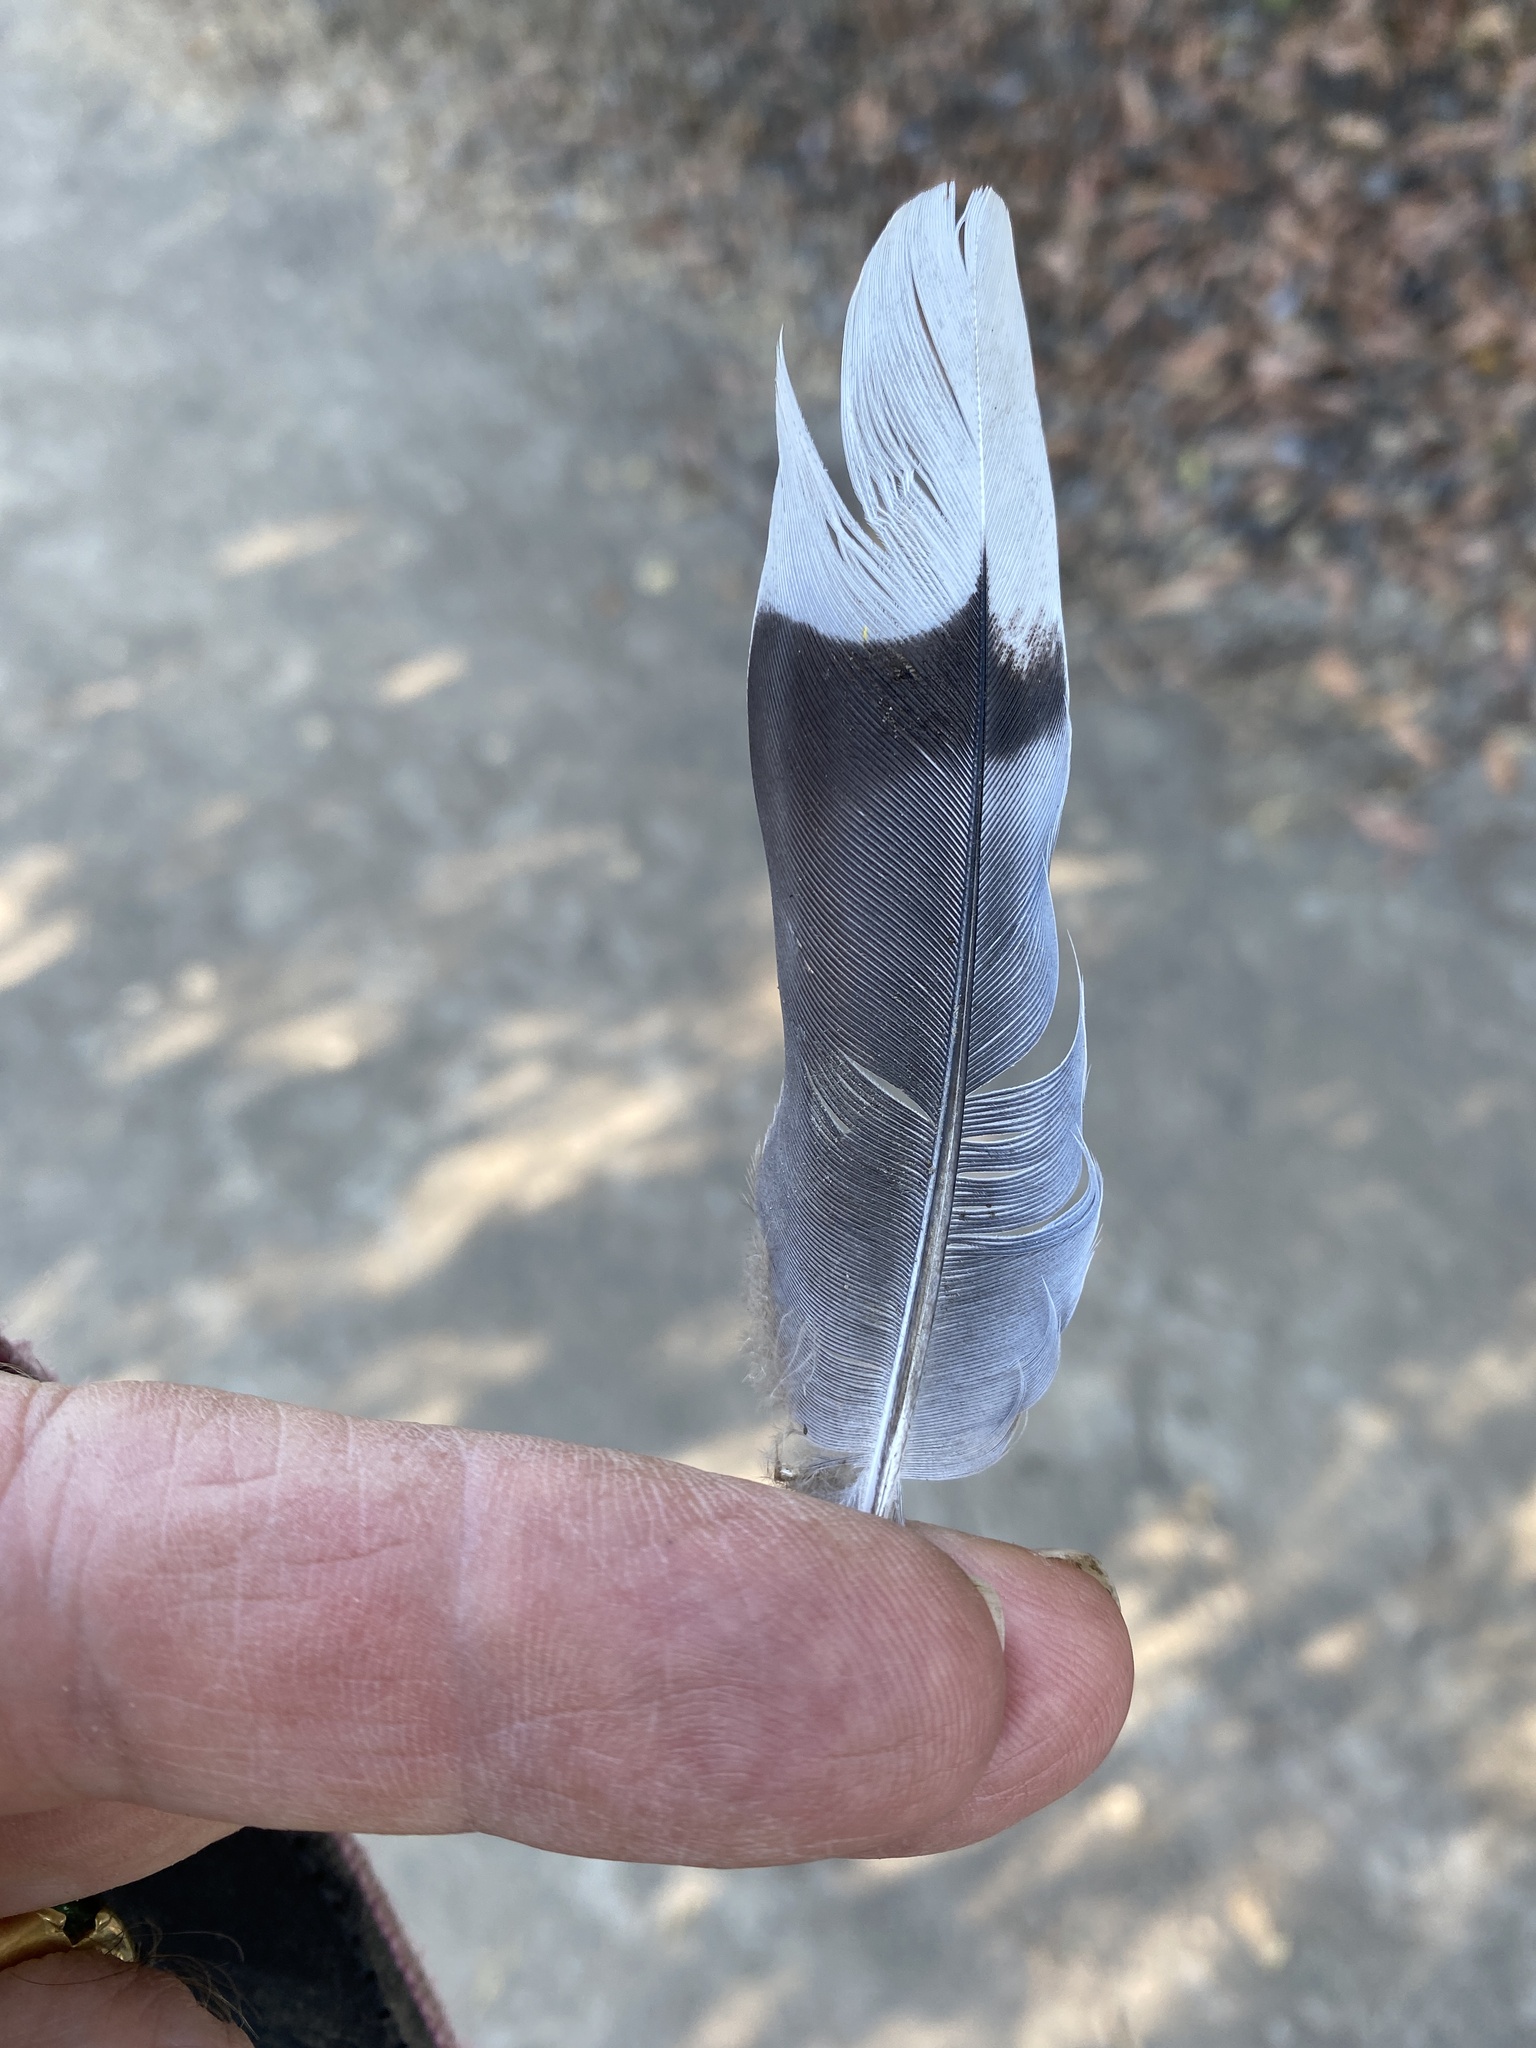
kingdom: Animalia
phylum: Chordata
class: Aves
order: Columbiformes
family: Columbidae
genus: Zenaida
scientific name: Zenaida macroura
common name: Mourning dove
